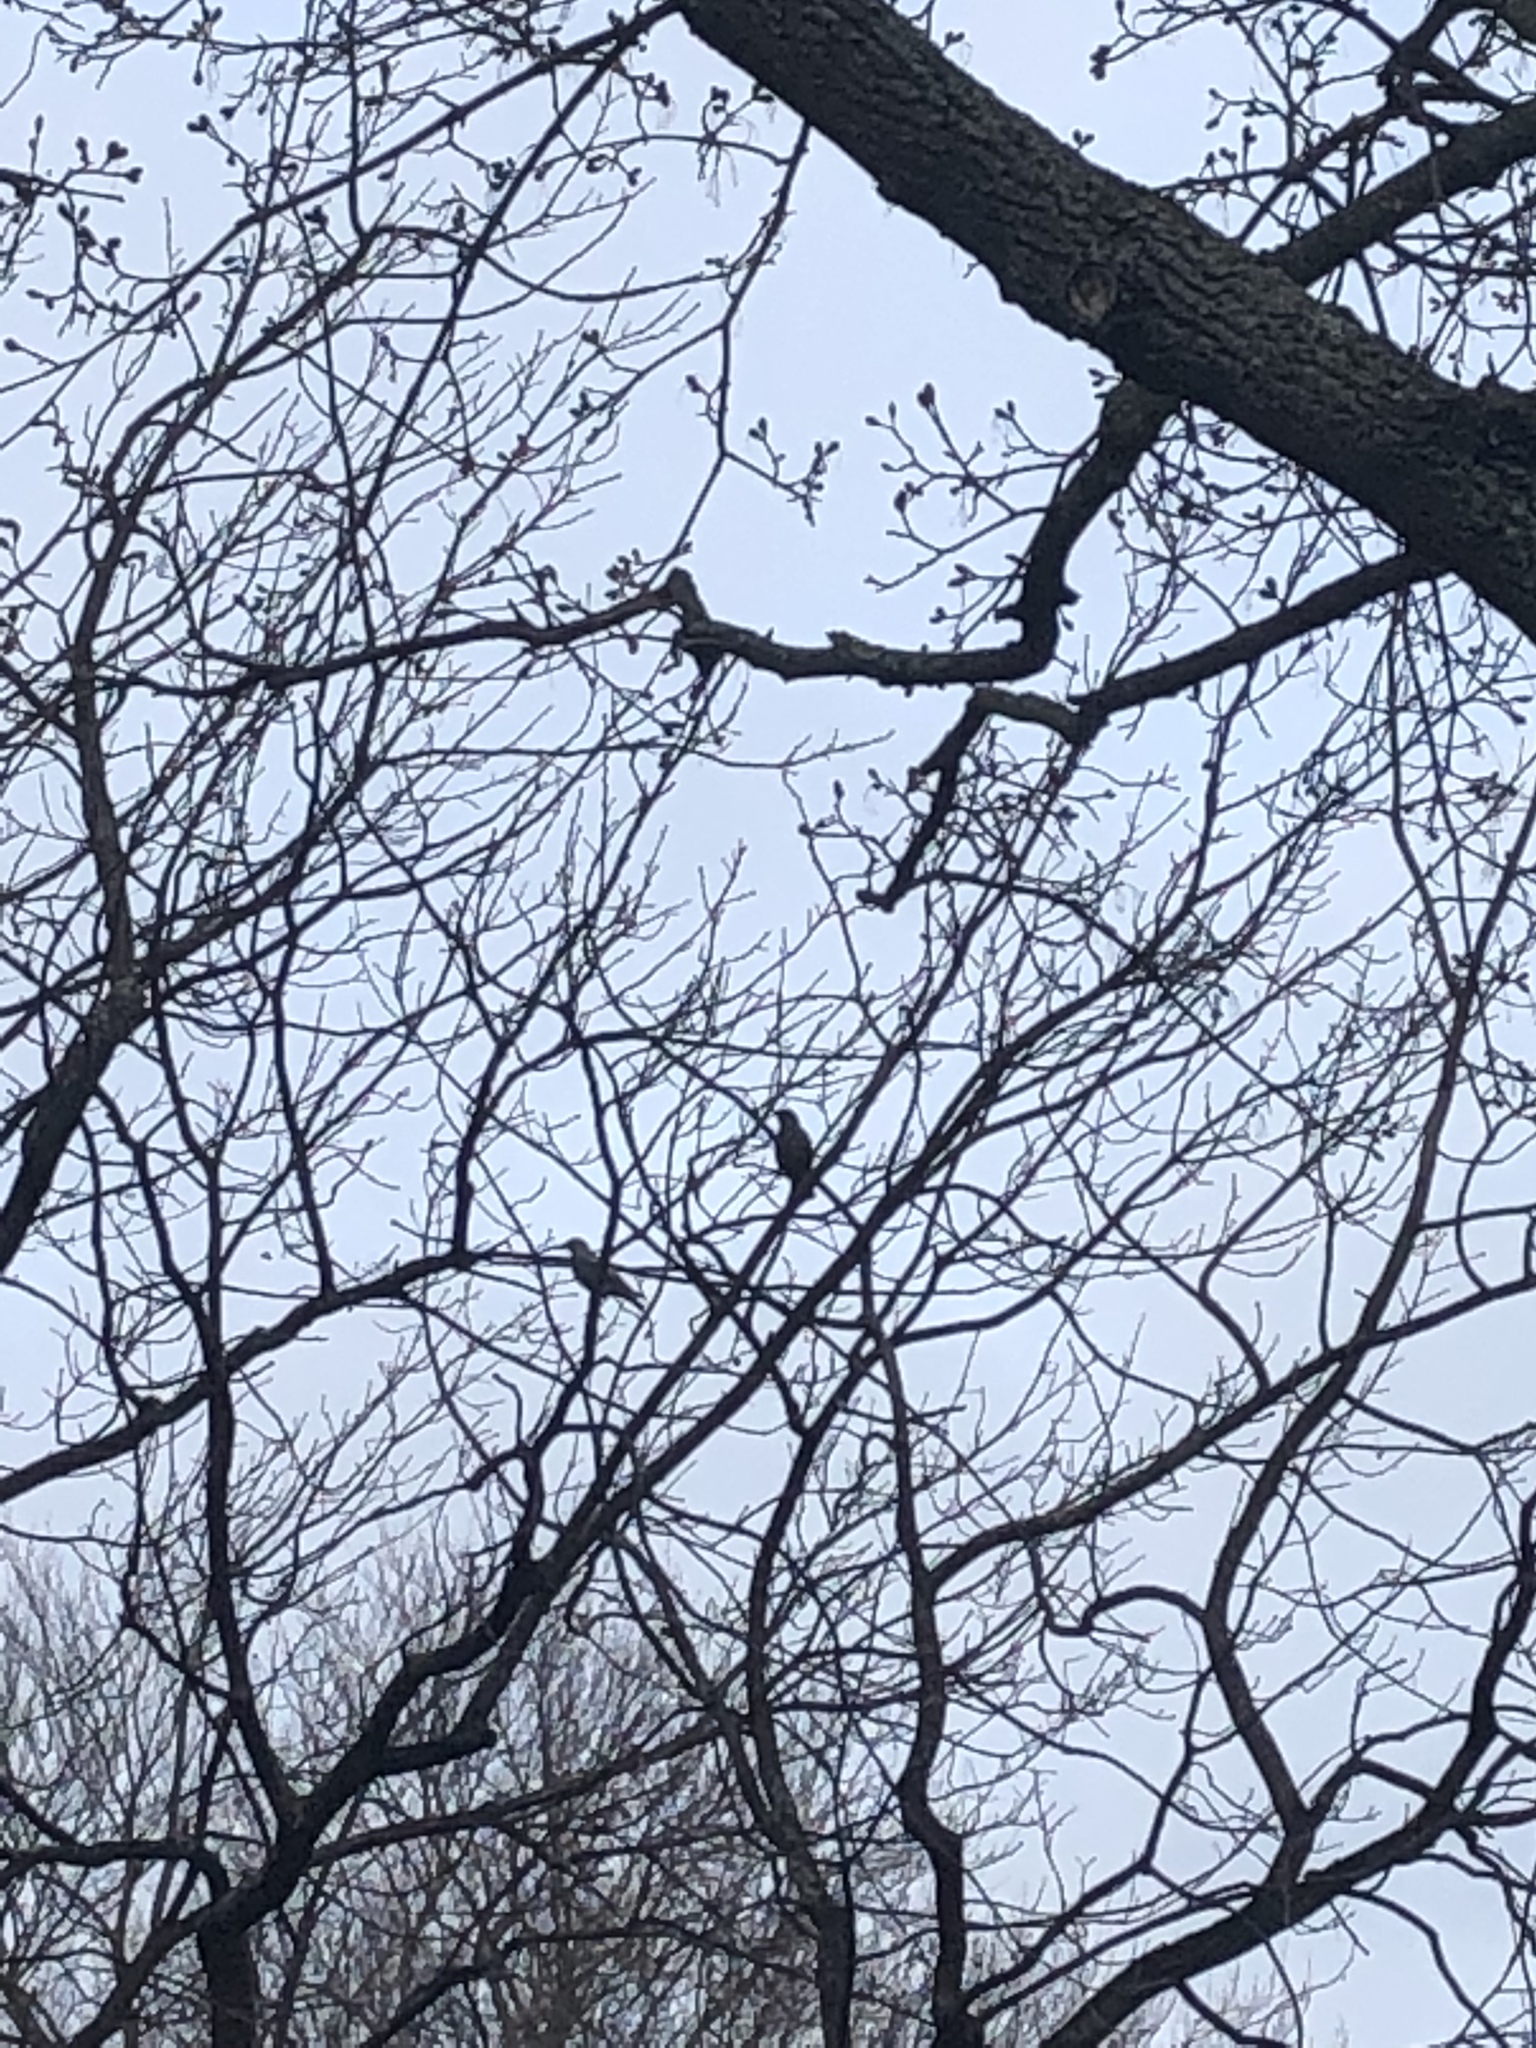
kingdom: Animalia
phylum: Chordata
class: Aves
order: Passeriformes
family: Sturnidae
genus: Sturnus
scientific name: Sturnus vulgaris
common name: Common starling
